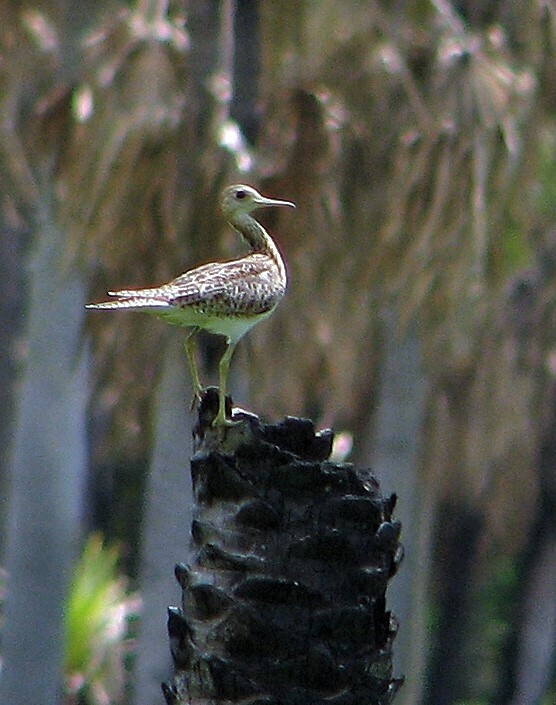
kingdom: Animalia
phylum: Chordata
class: Aves
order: Charadriiformes
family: Scolopacidae
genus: Bartramia
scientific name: Bartramia longicauda
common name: Upland sandpiper
